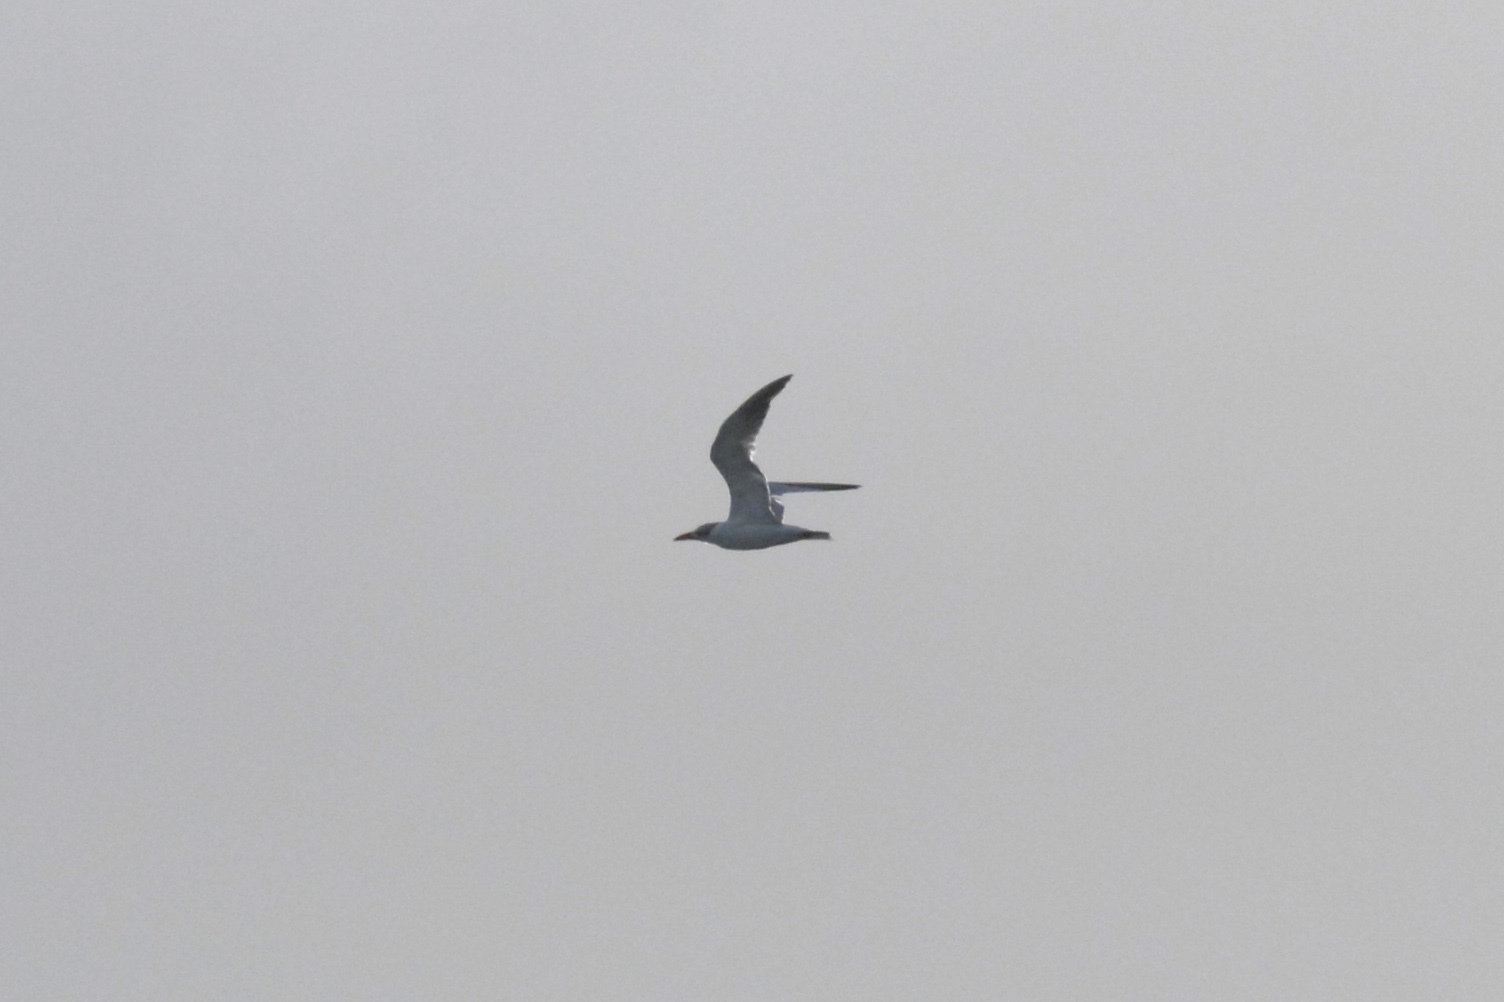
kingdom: Animalia
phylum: Chordata
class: Aves
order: Charadriiformes
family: Laridae
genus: Hydroprogne
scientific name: Hydroprogne caspia
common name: Caspian tern
